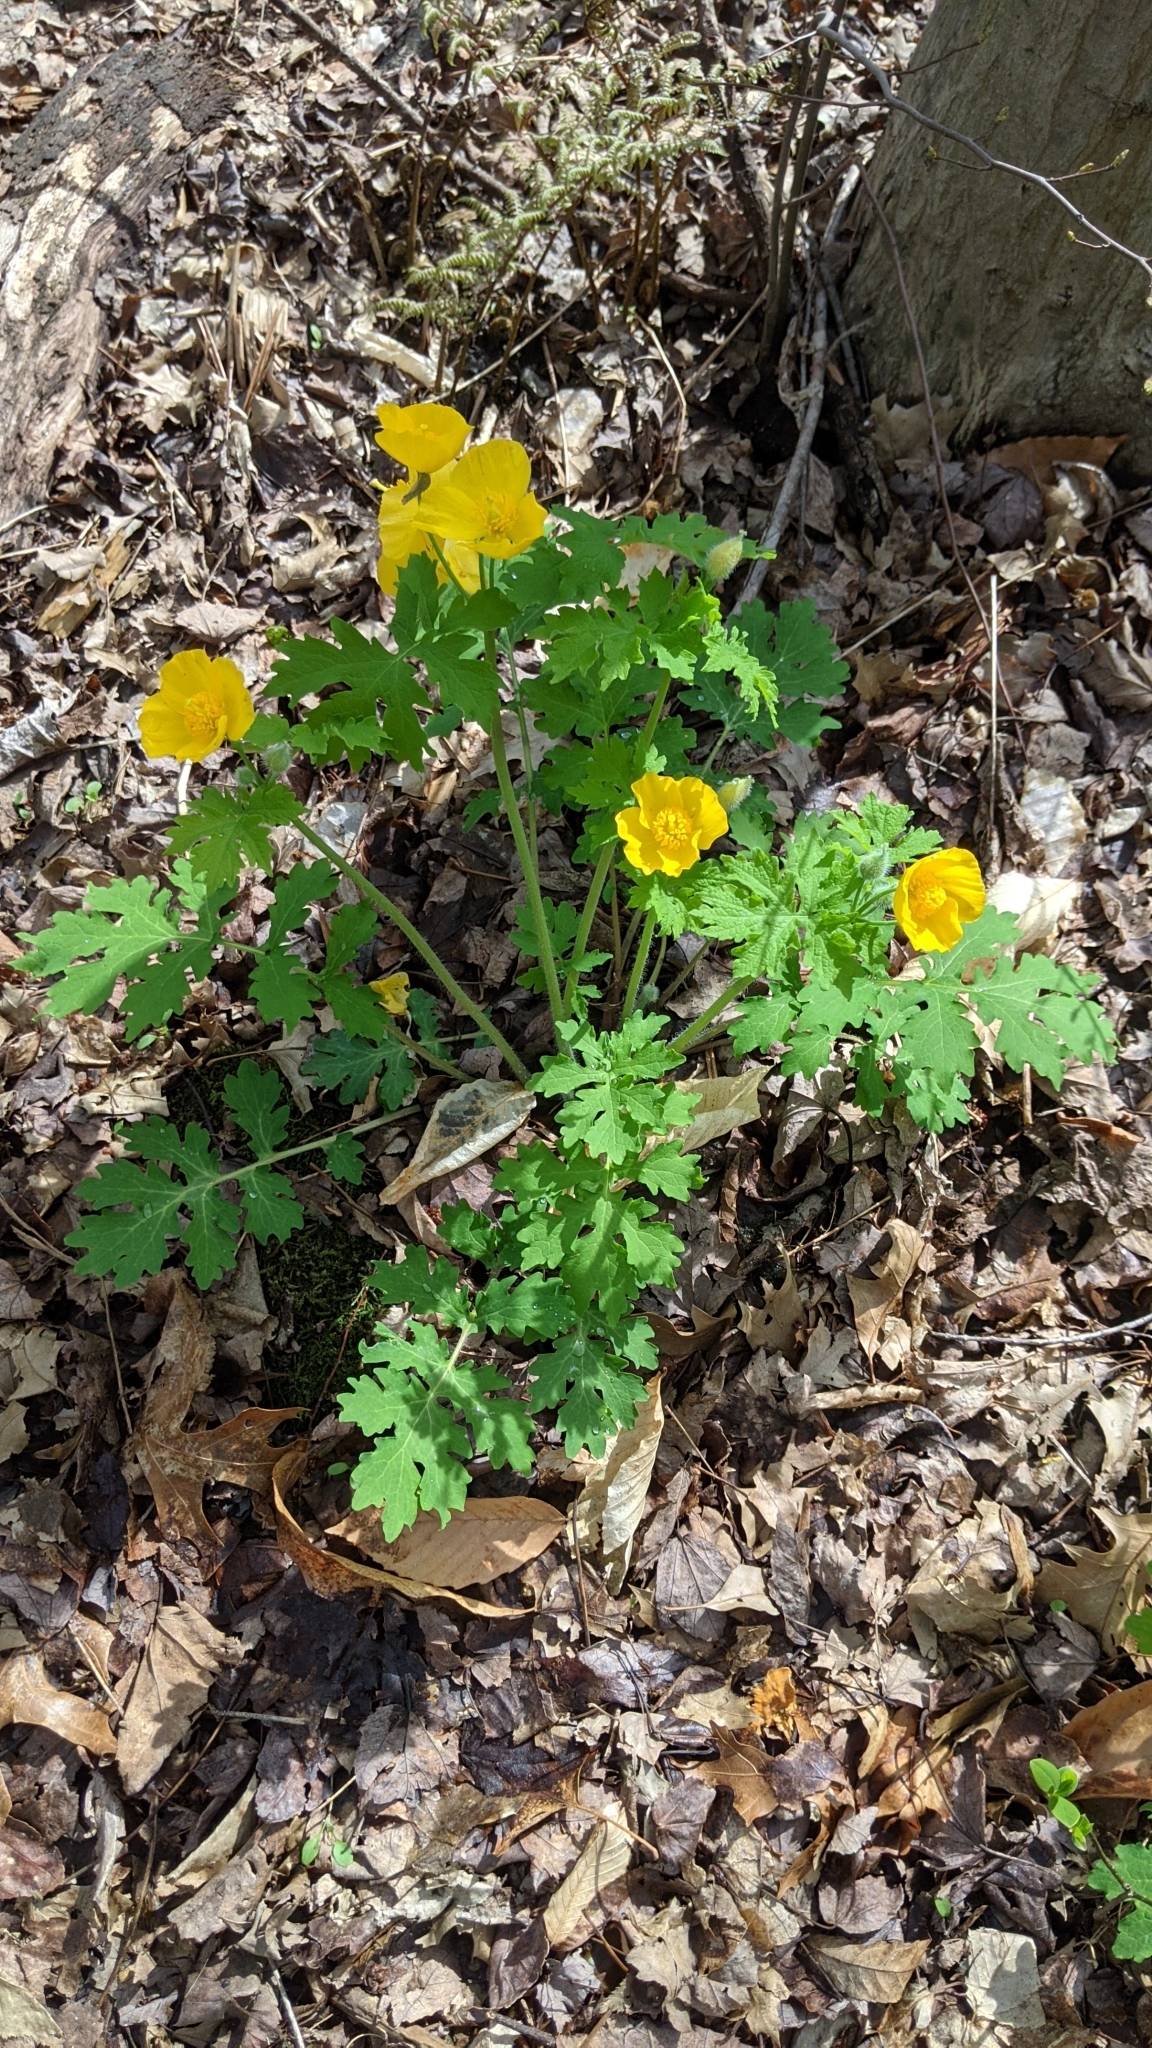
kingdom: Plantae
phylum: Tracheophyta
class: Magnoliopsida
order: Ranunculales
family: Papaveraceae
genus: Stylophorum
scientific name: Stylophorum diphyllum
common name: Celandine poppy
